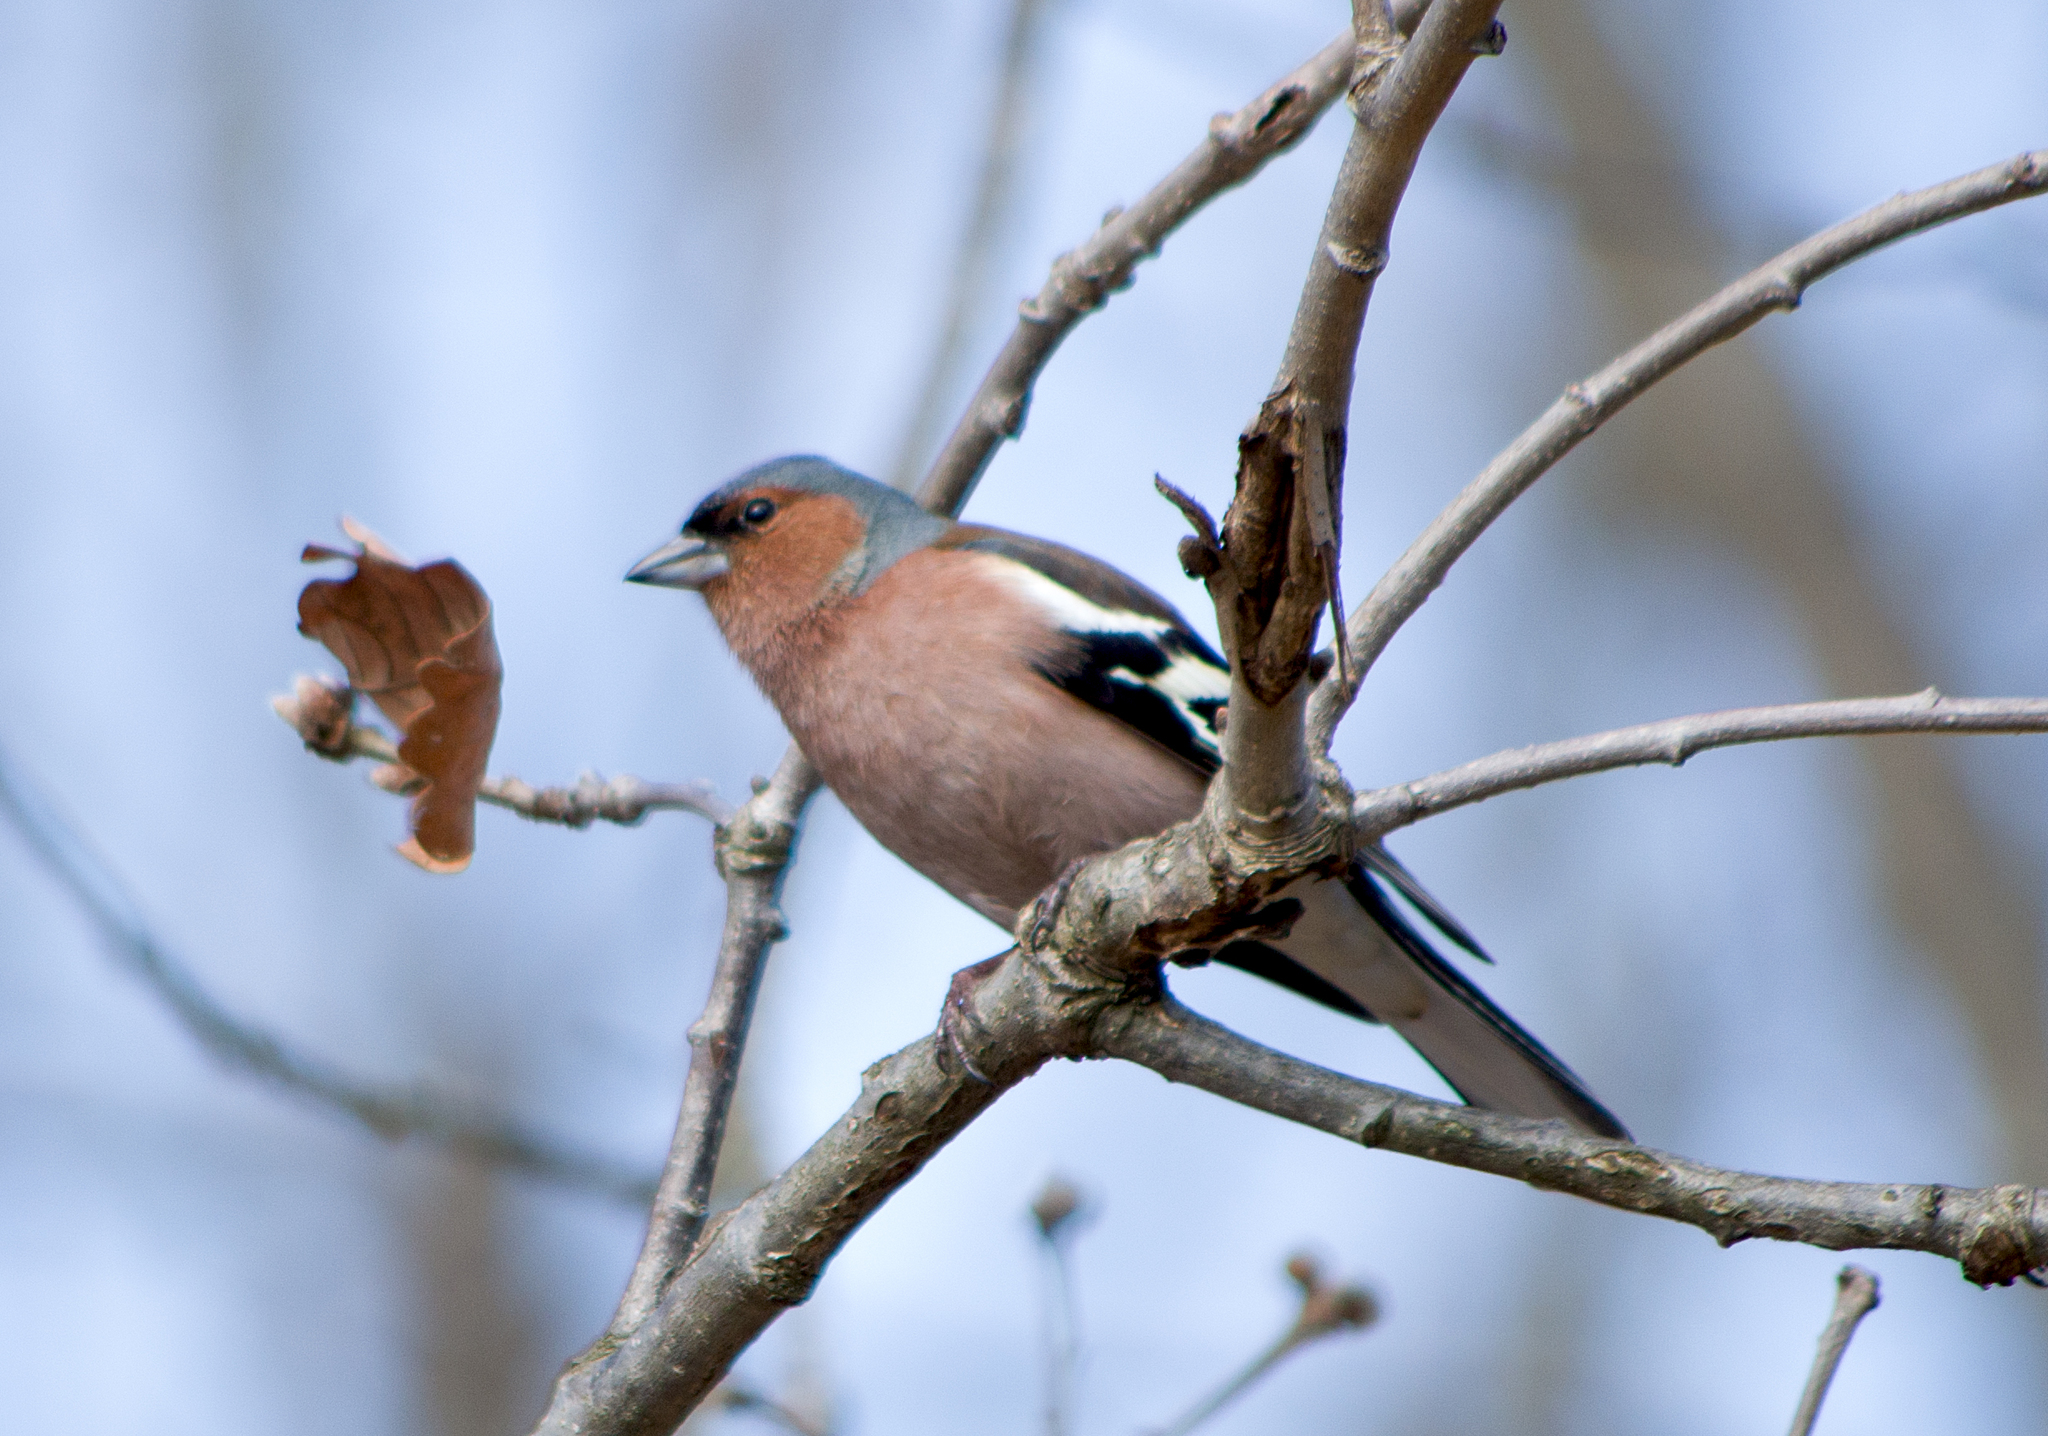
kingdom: Animalia
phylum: Chordata
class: Aves
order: Passeriformes
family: Fringillidae
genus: Fringilla
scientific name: Fringilla coelebs
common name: Common chaffinch
